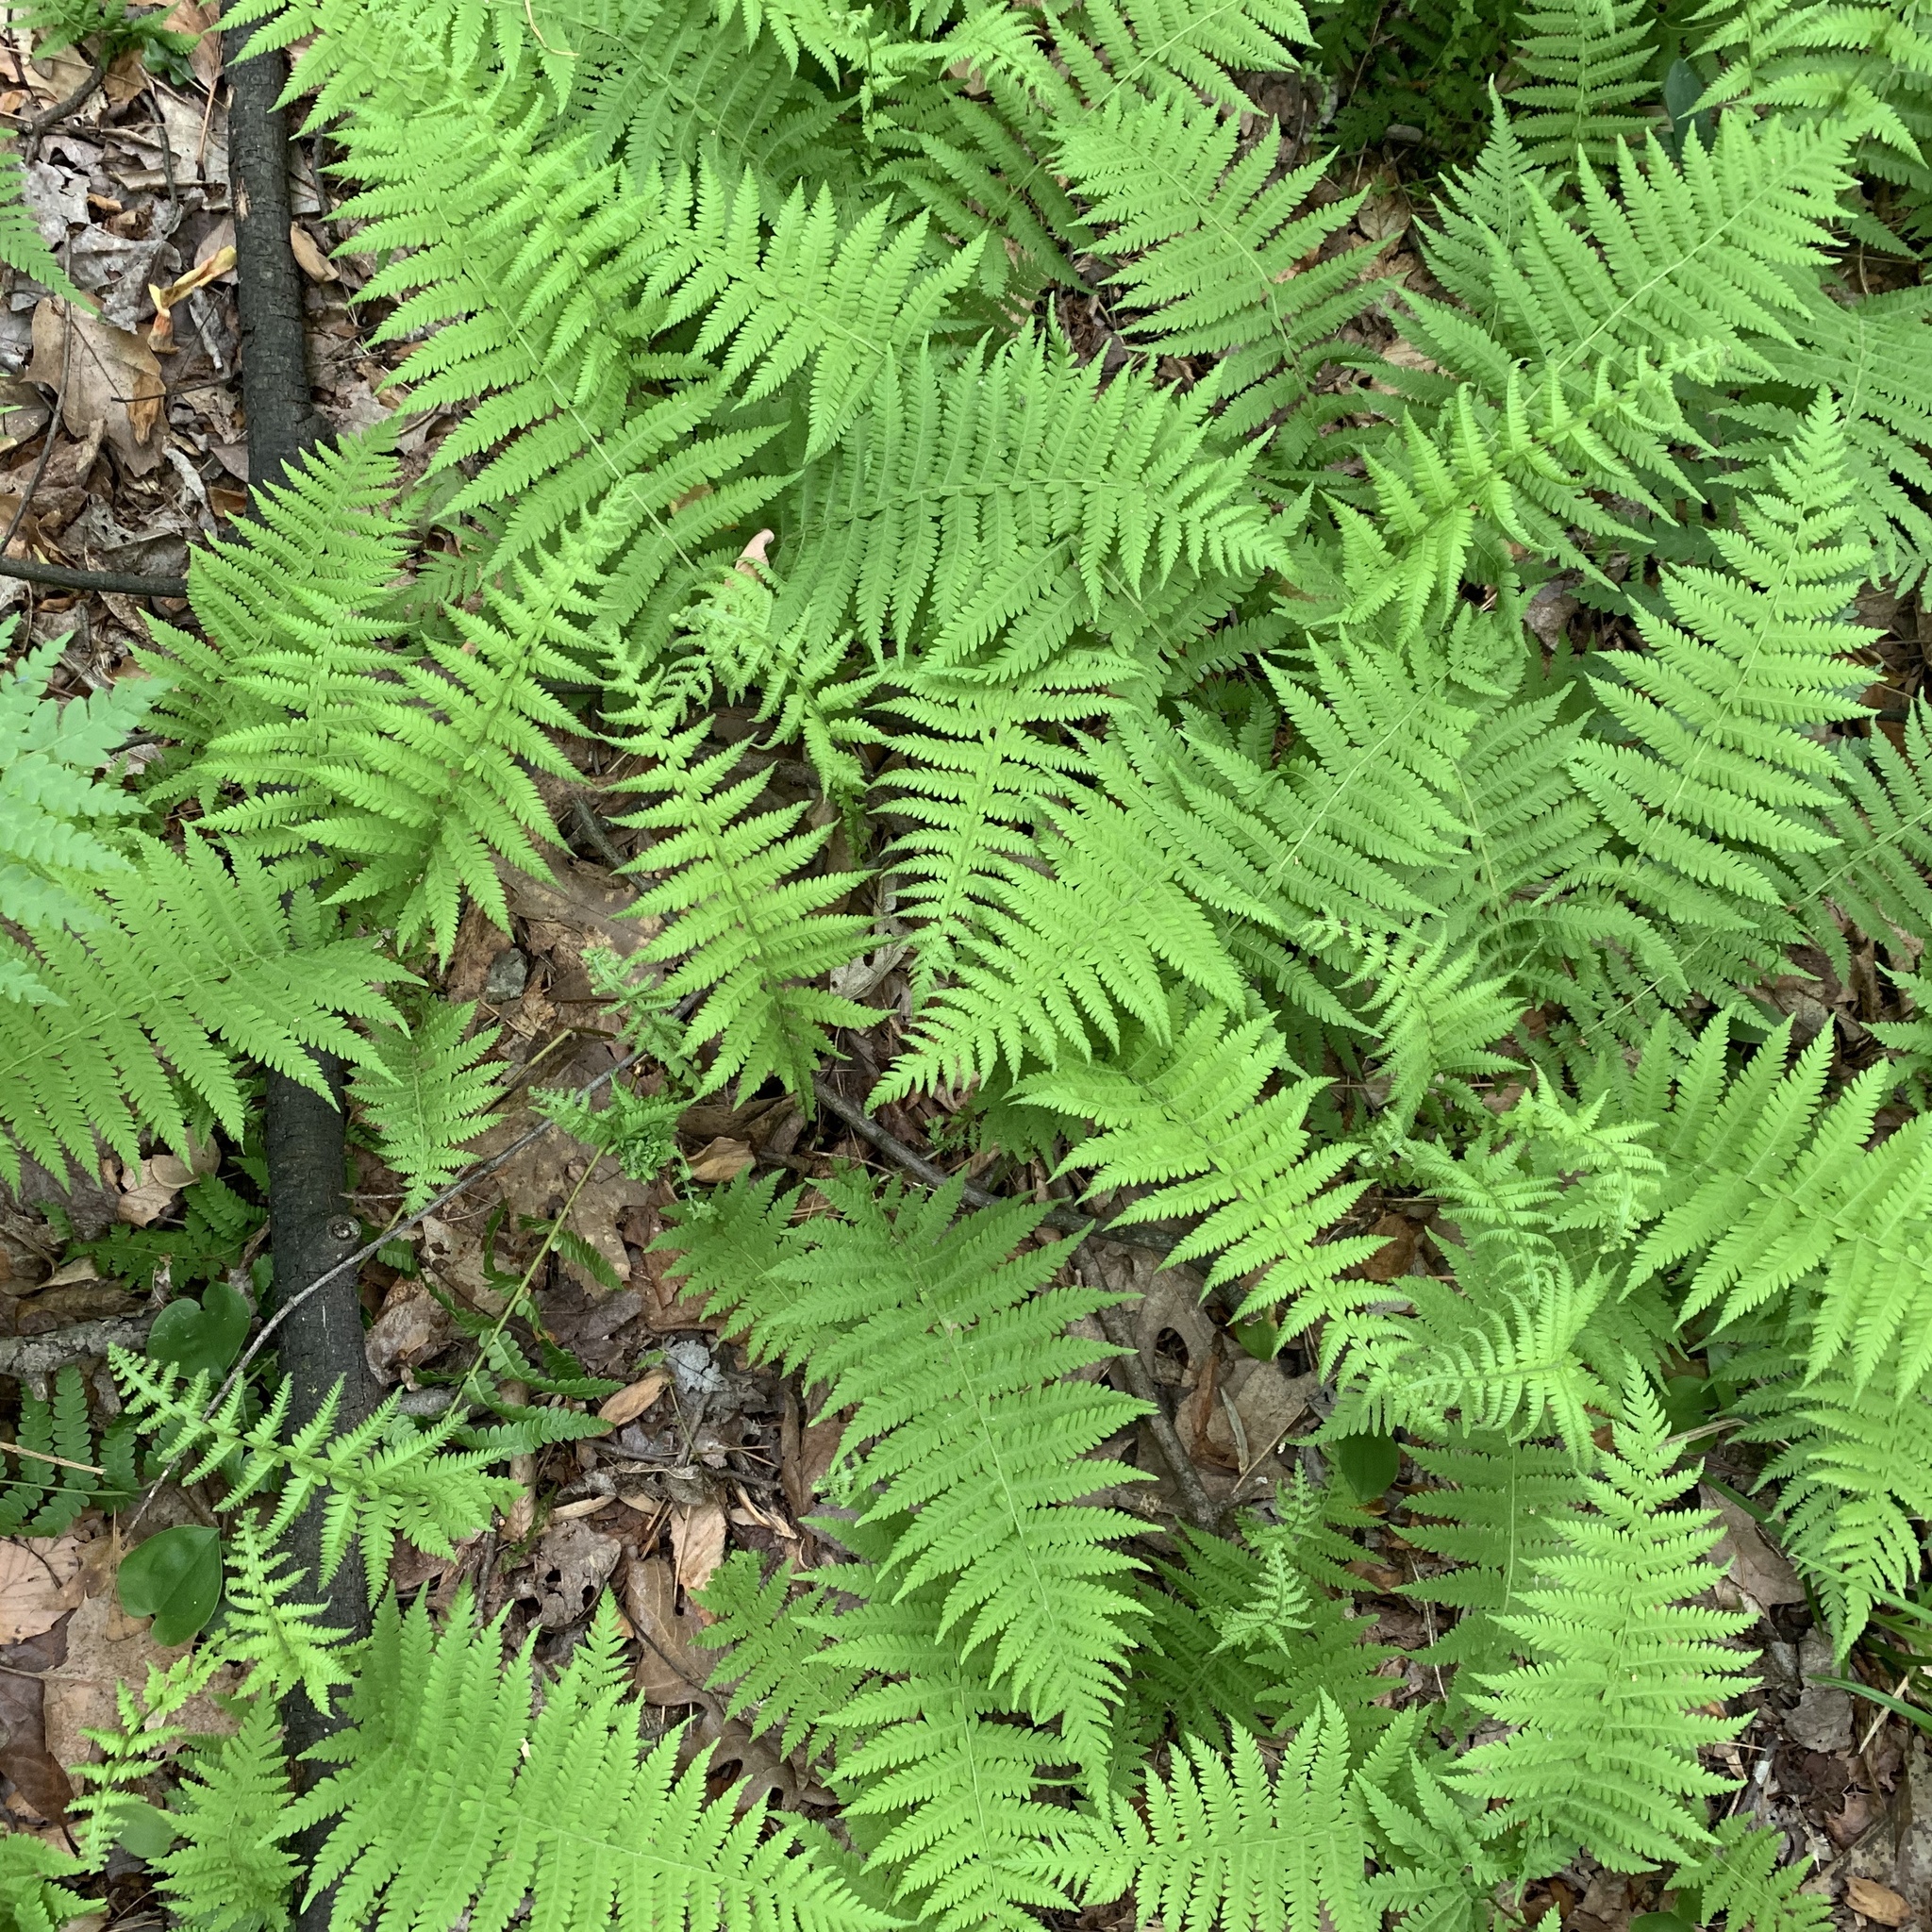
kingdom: Plantae
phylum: Tracheophyta
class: Polypodiopsida
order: Polypodiales
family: Thelypteridaceae
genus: Amauropelta
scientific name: Amauropelta noveboracensis
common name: New york fern
